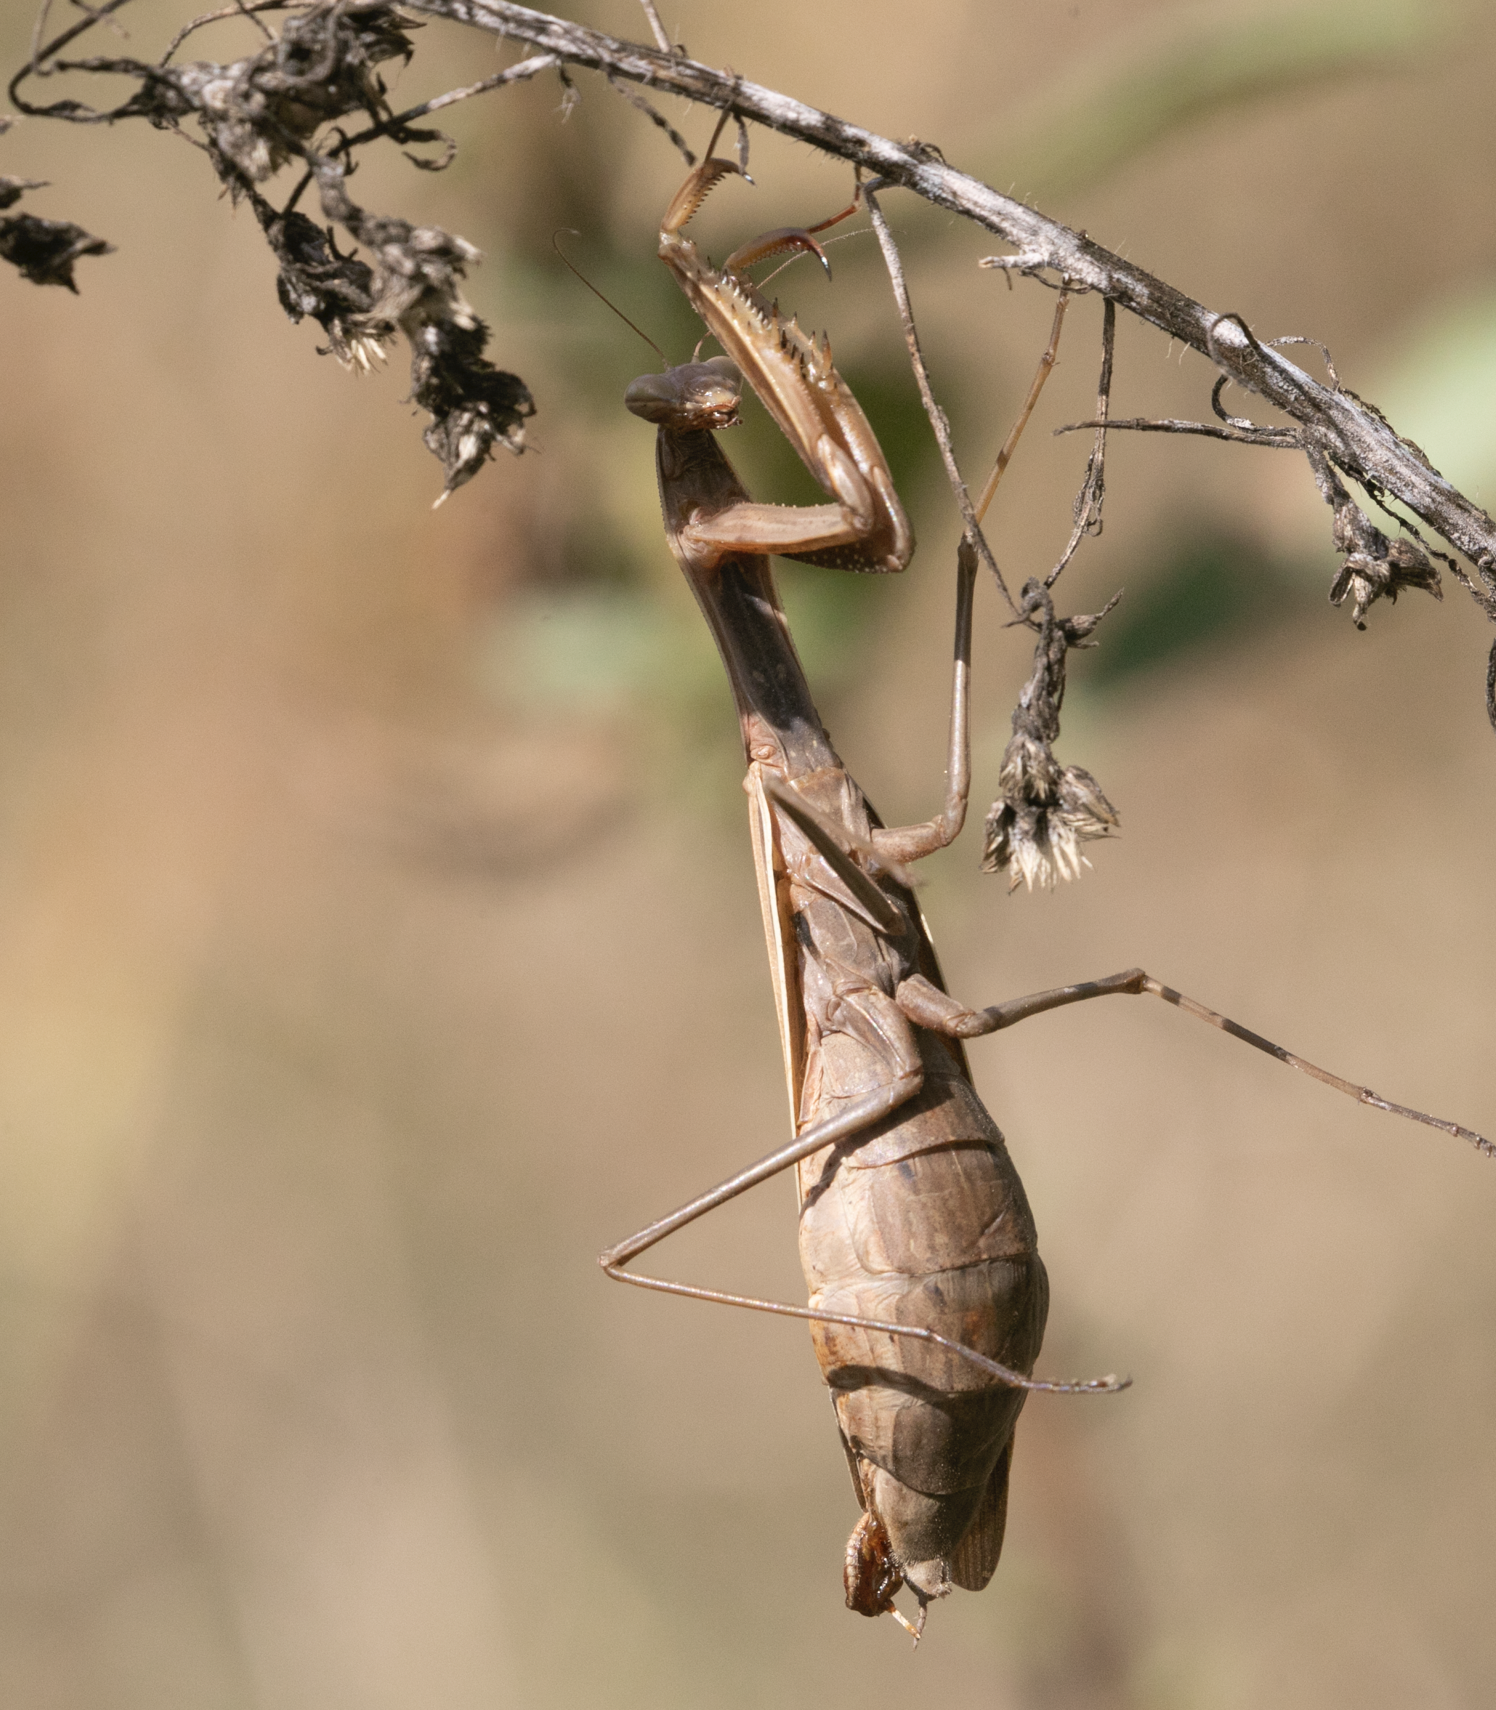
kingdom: Animalia
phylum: Arthropoda
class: Insecta
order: Mantodea
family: Mantidae
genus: Mantis
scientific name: Mantis religiosa
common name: Praying mantis
